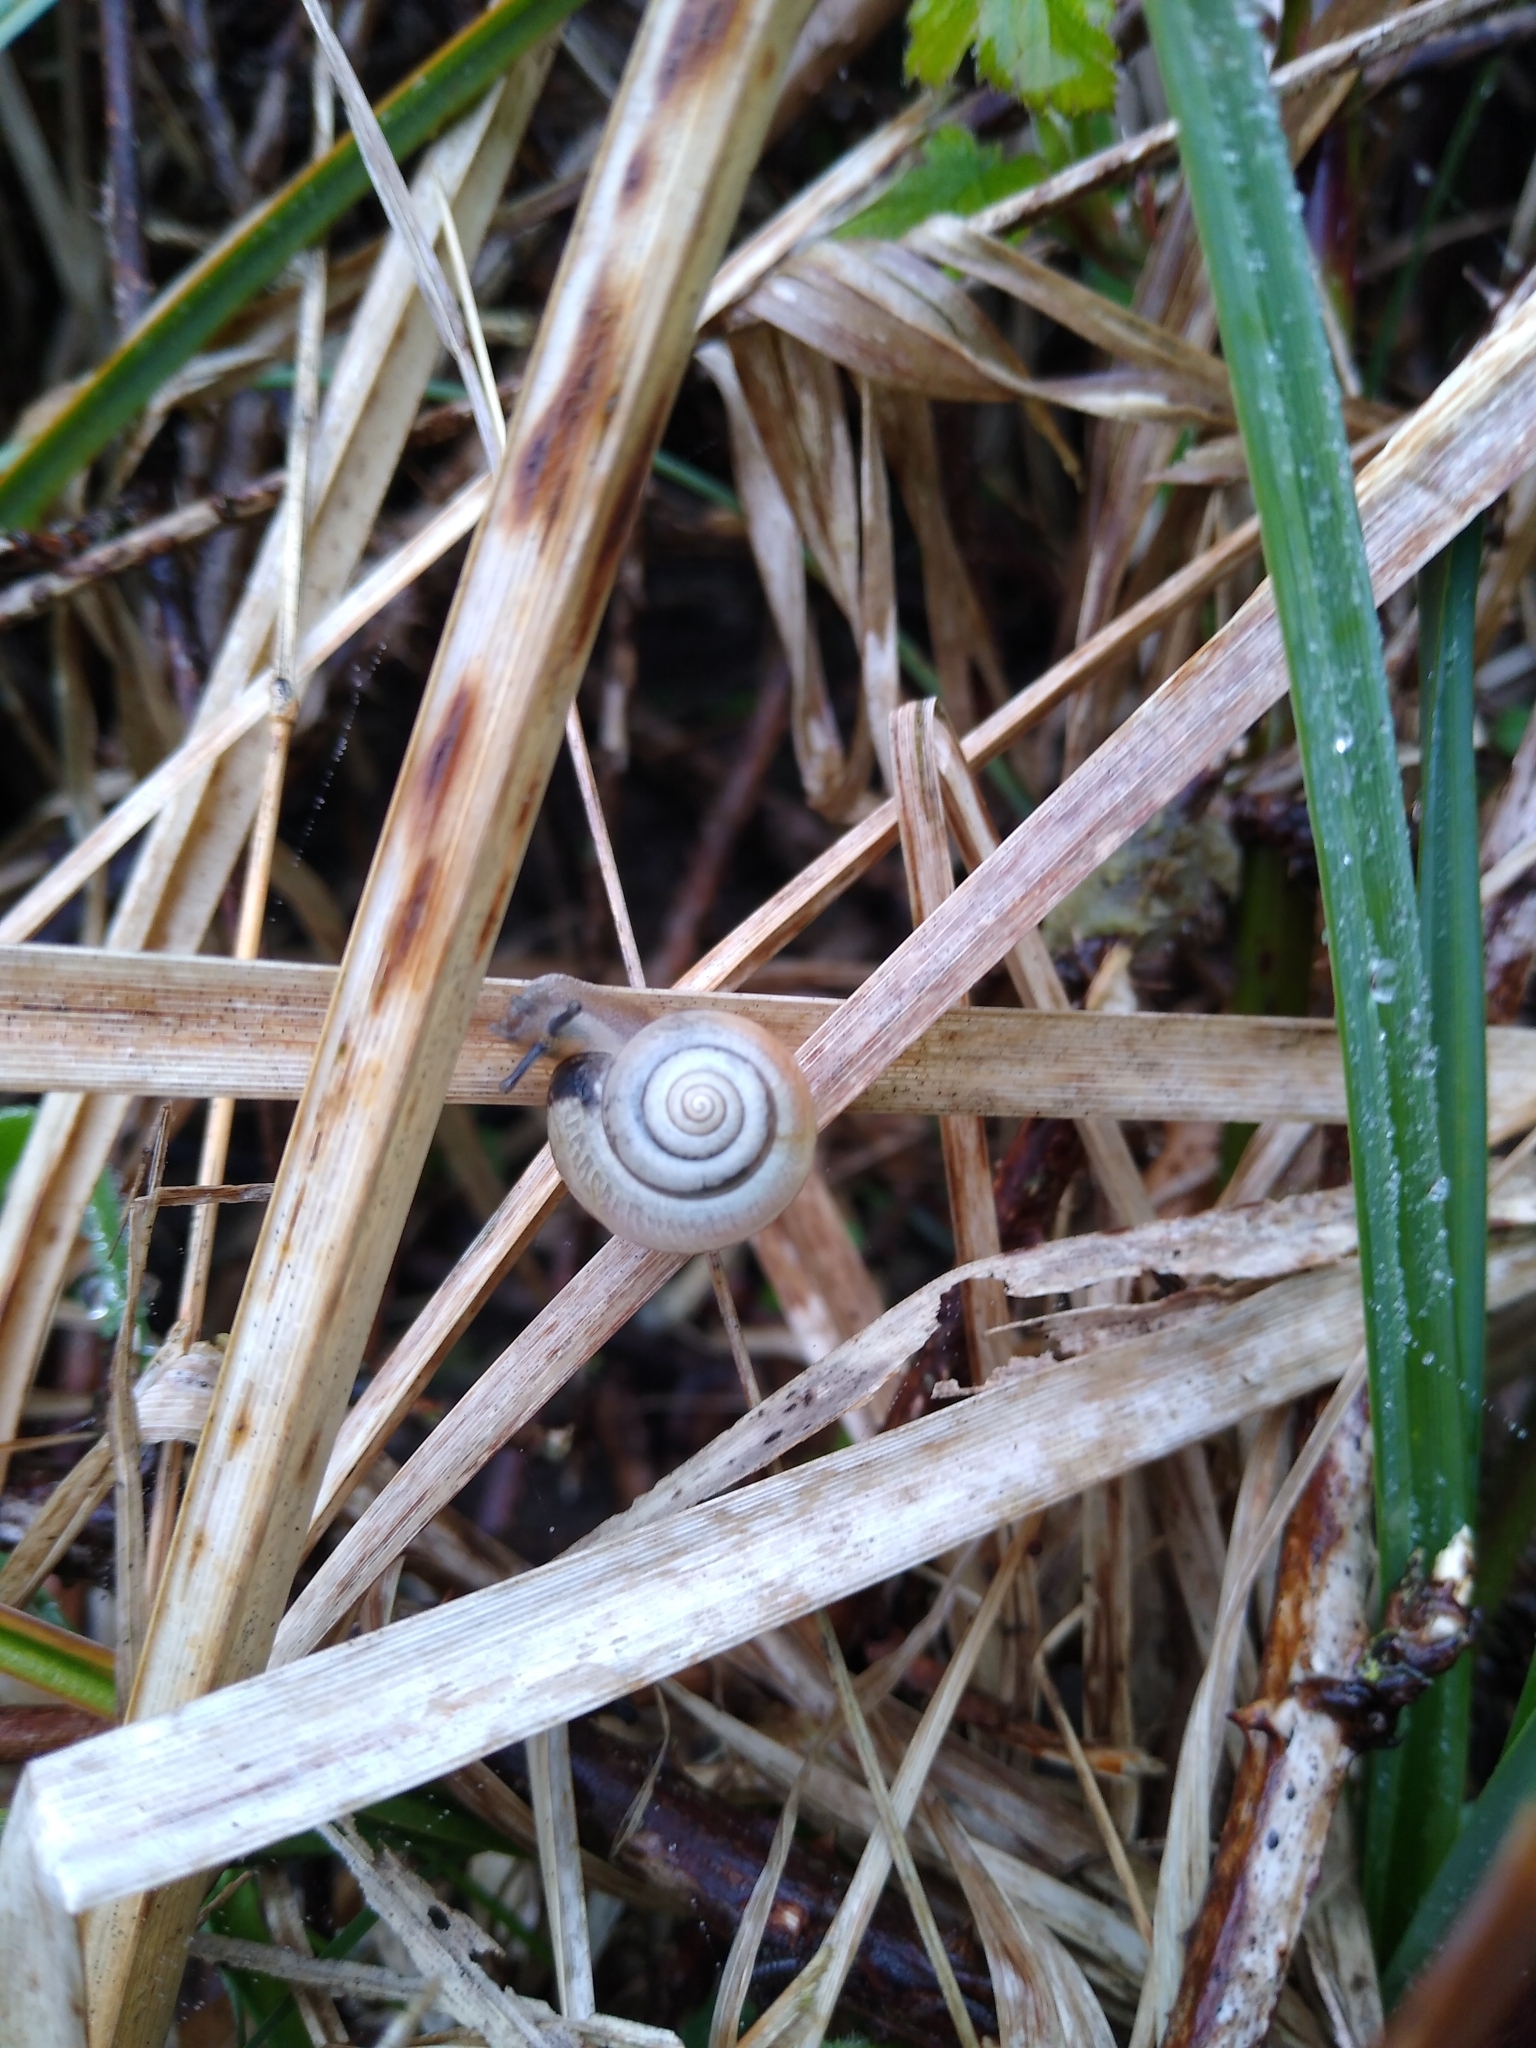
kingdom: Animalia
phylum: Mollusca
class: Gastropoda
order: Stylommatophora
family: Hygromiidae
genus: Monacha
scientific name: Monacha cantiana
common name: Kentish snail
